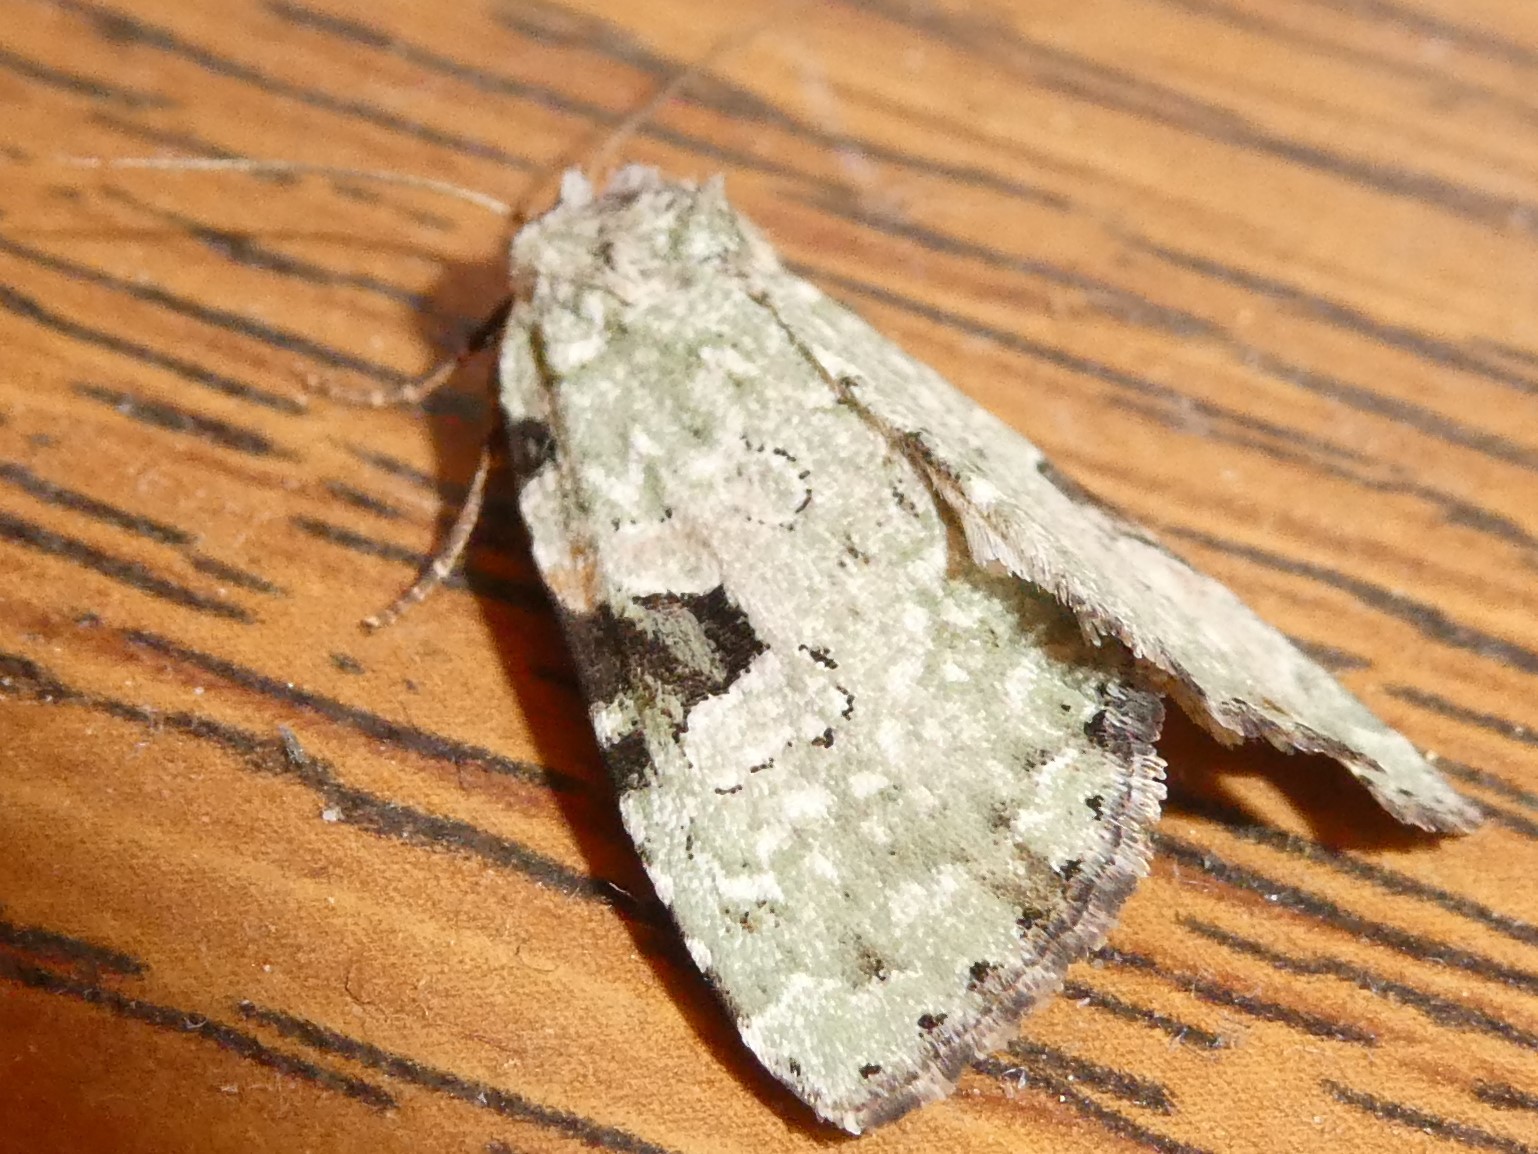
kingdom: Animalia
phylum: Arthropoda
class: Insecta
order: Lepidoptera
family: Noctuidae
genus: Leuconycta
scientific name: Leuconycta diphteroides
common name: Green leuconycta moth
